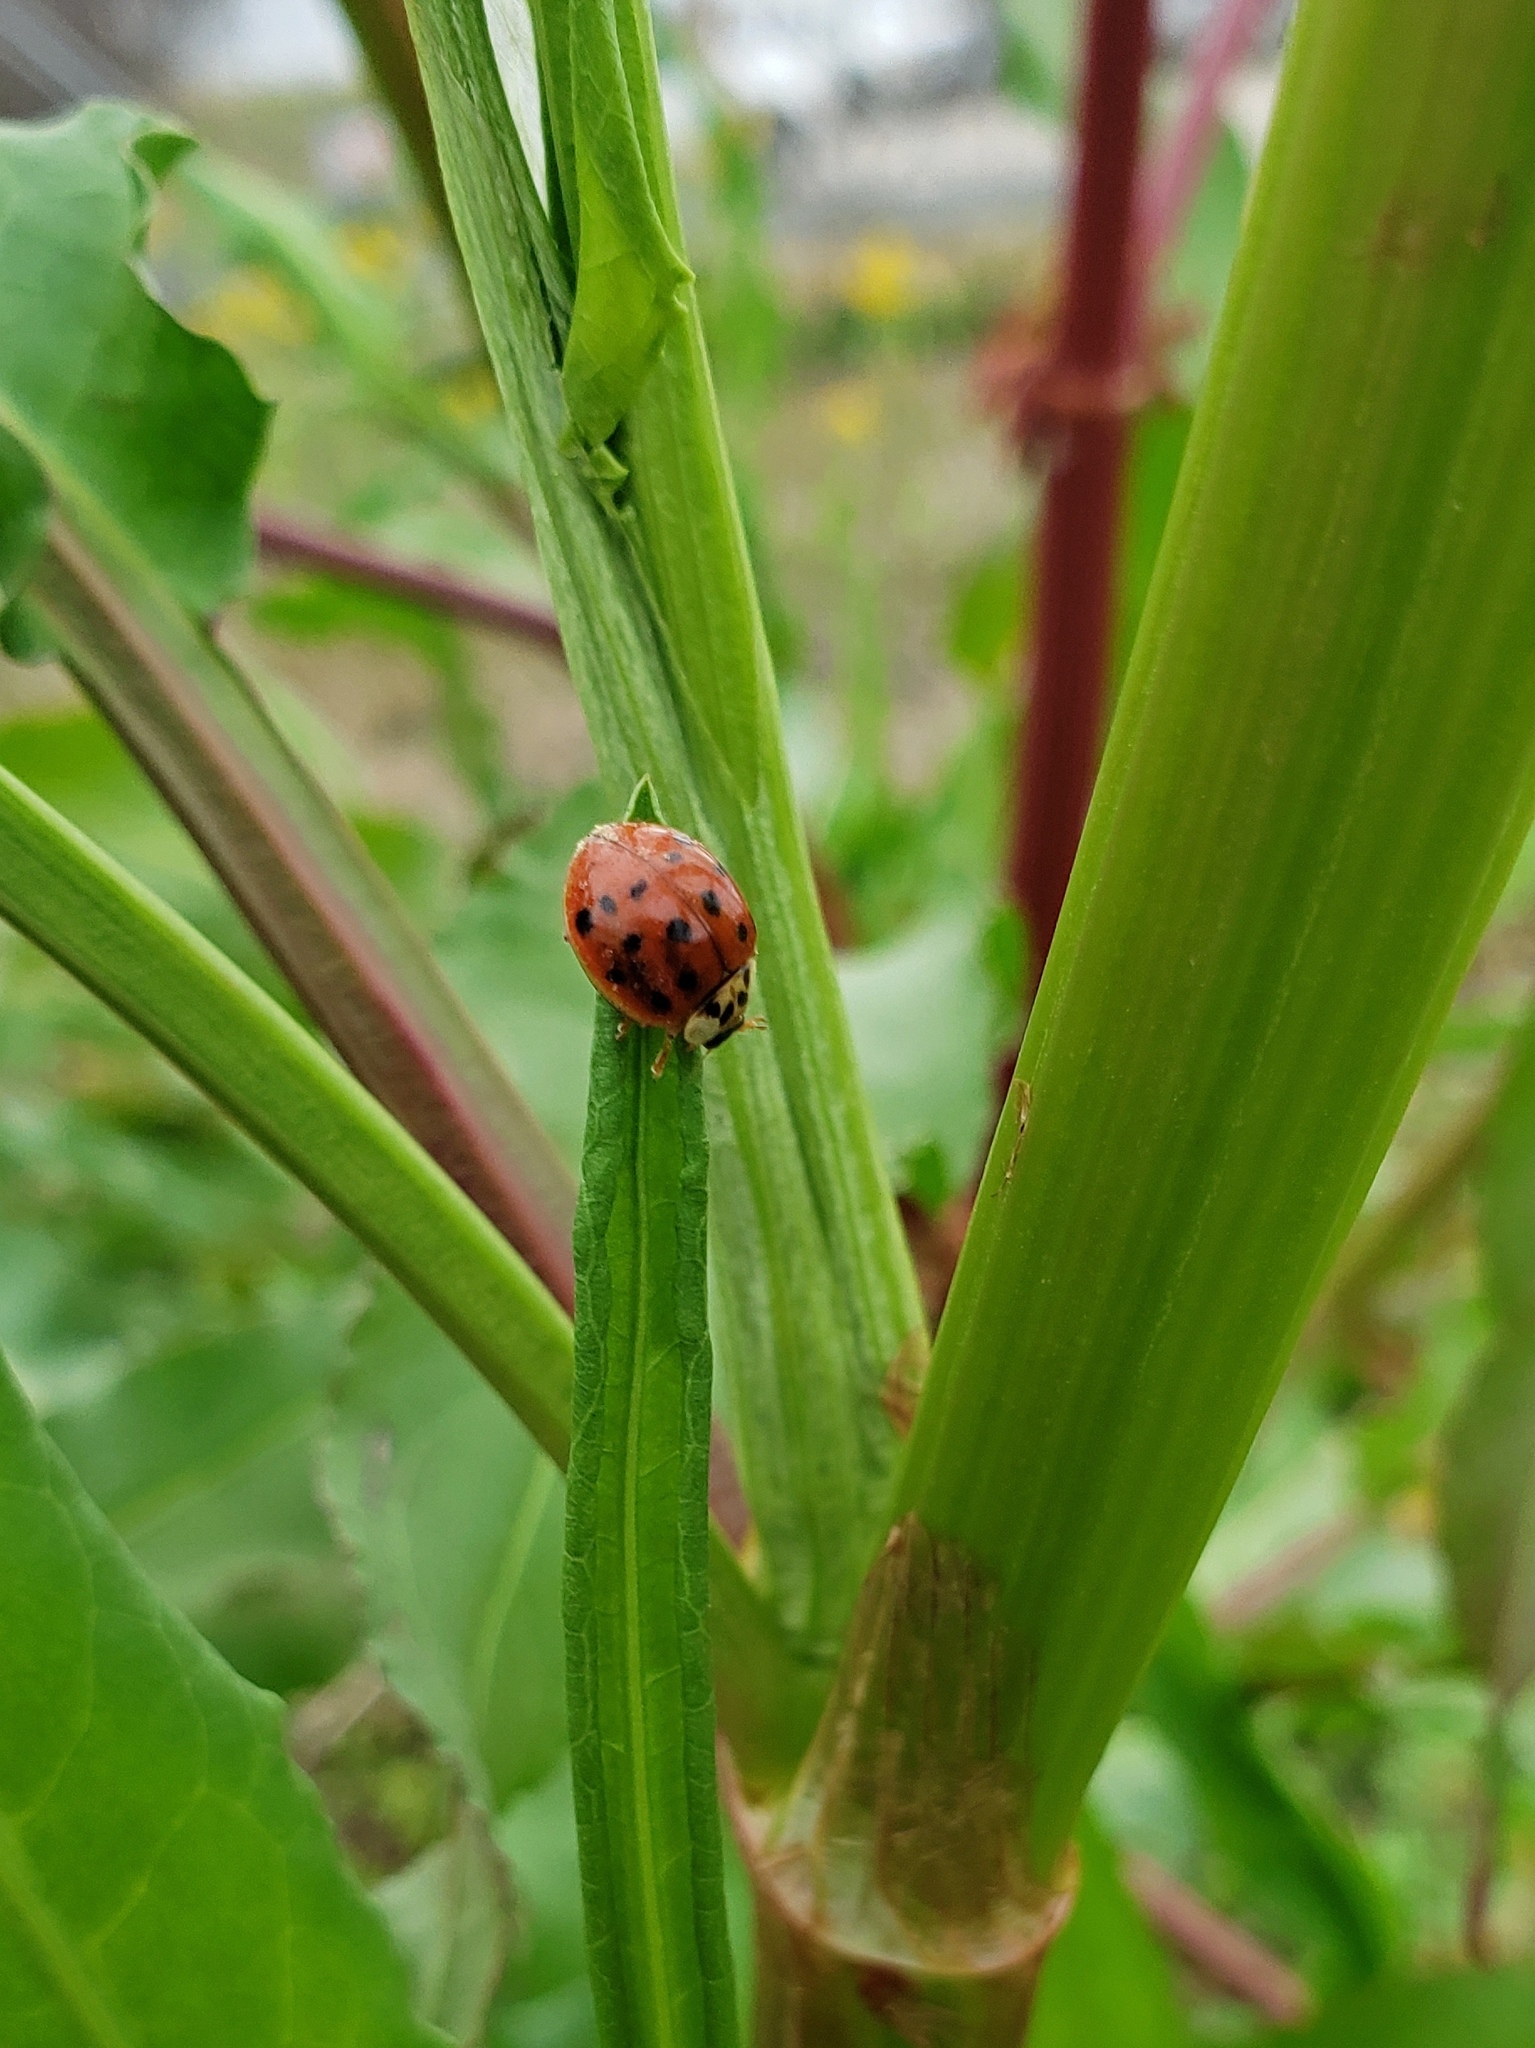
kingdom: Animalia
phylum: Arthropoda
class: Insecta
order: Coleoptera
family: Coccinellidae
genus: Harmonia
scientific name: Harmonia axyridis
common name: Harlequin ladybird
